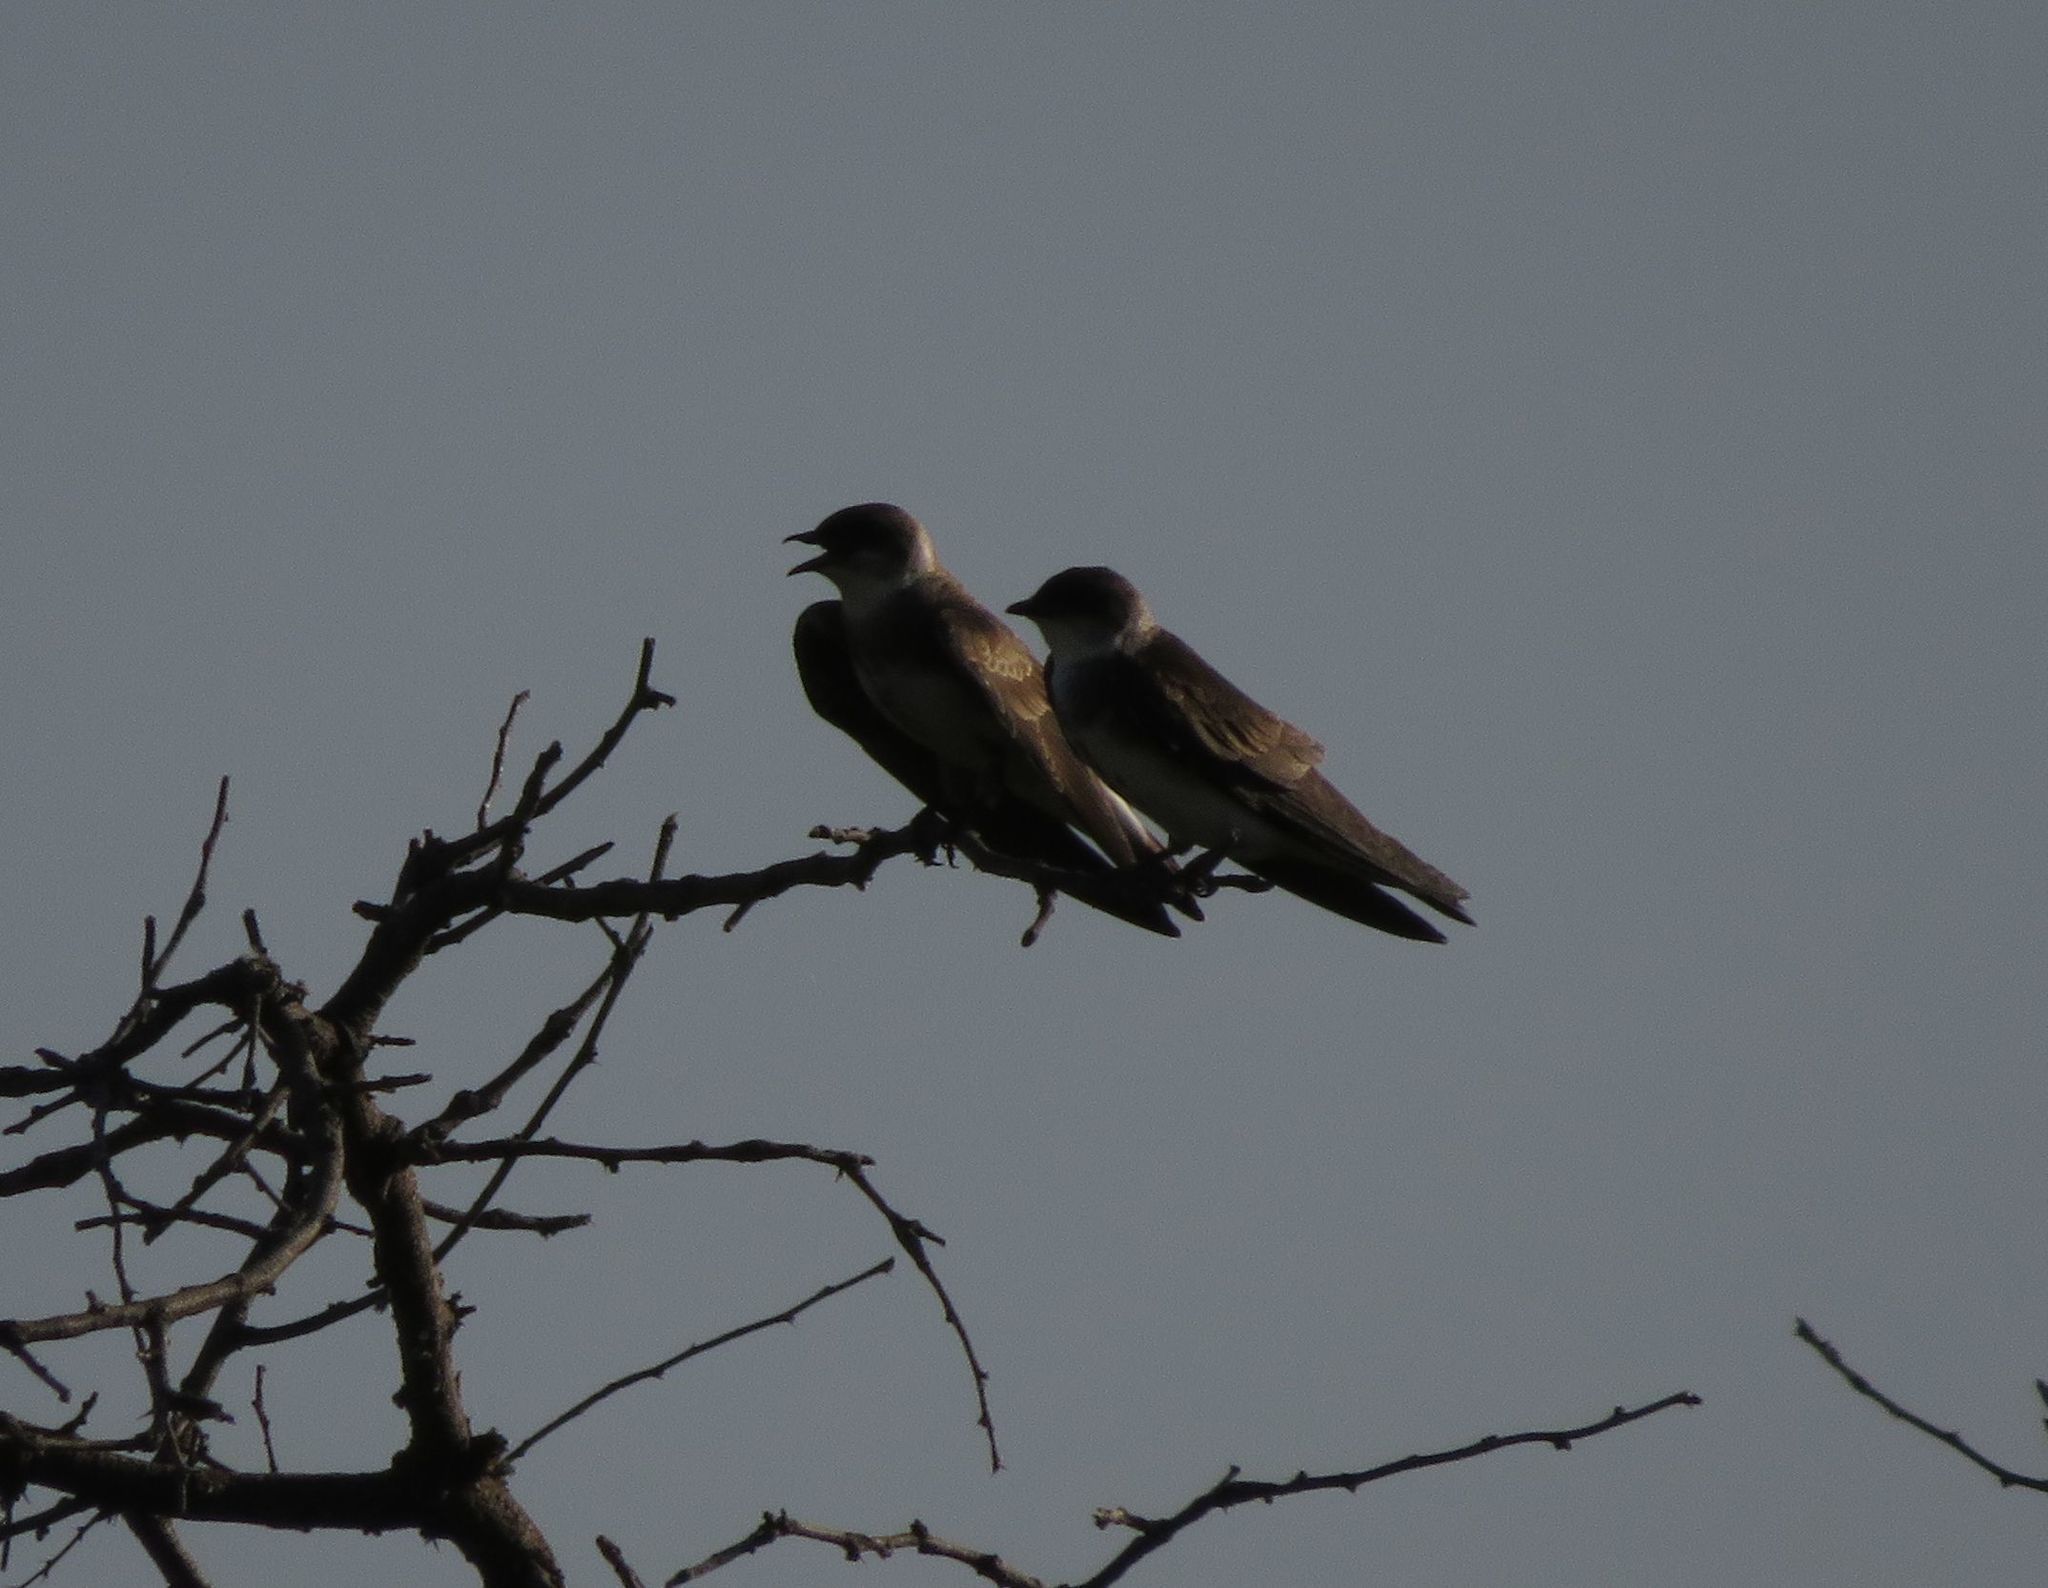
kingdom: Animalia
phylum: Chordata
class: Aves
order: Passeriformes
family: Hirundinidae
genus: Progne
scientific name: Progne tapera
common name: Brown-chested martin
